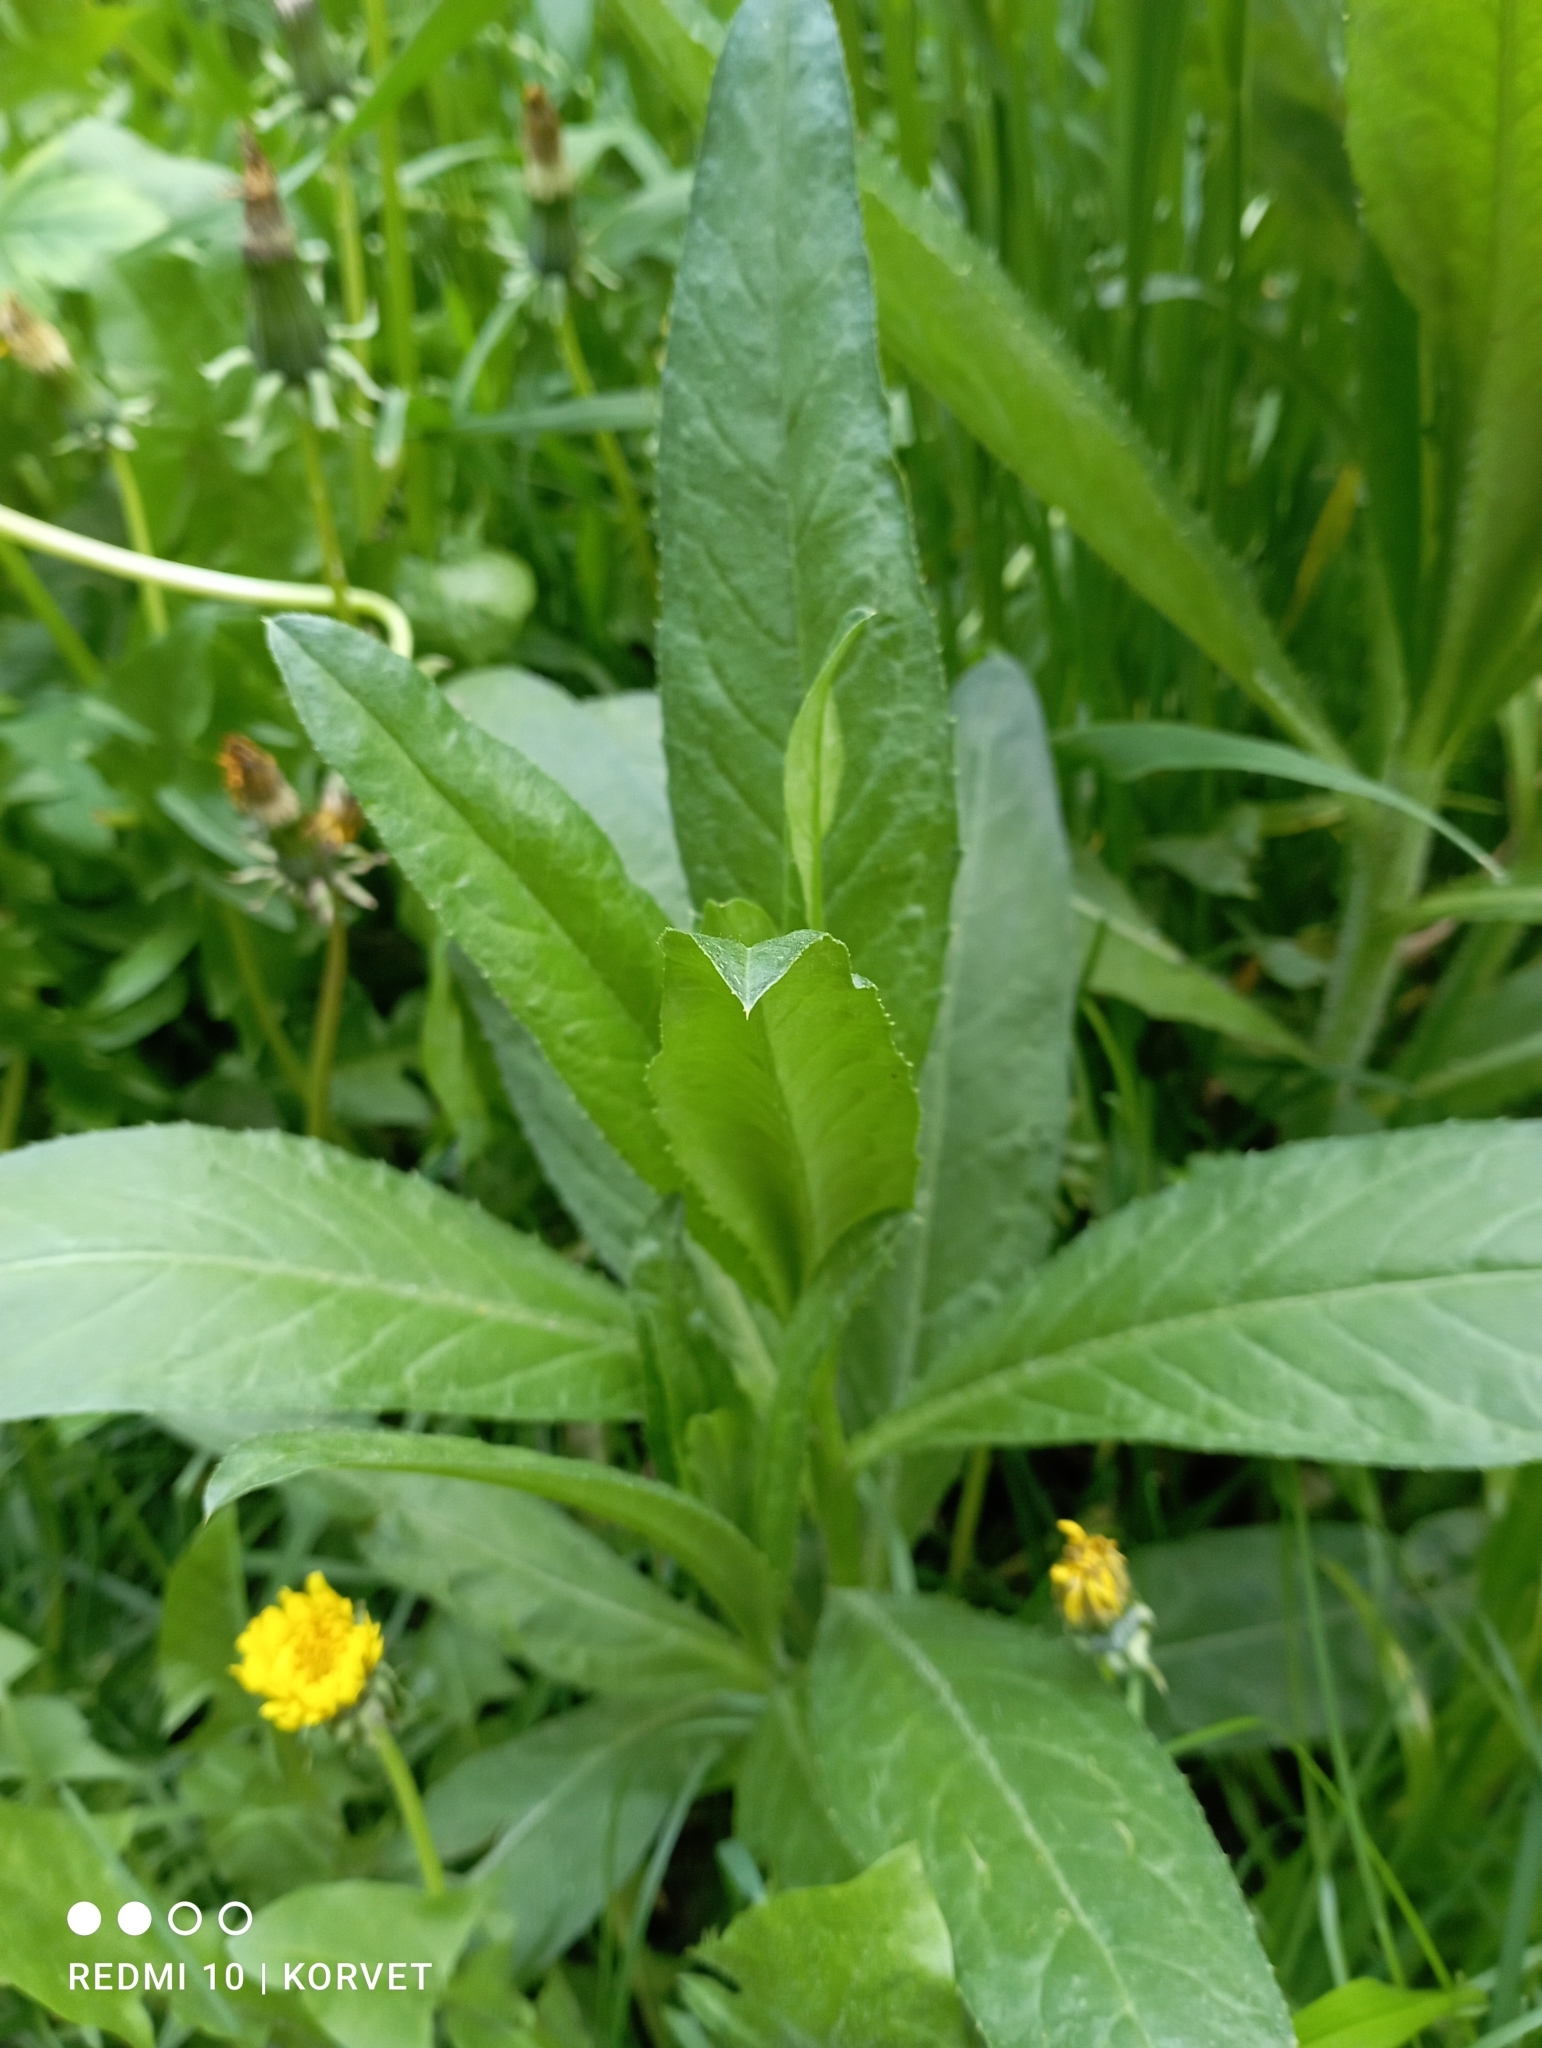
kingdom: Plantae
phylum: Tracheophyta
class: Magnoliopsida
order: Asterales
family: Asteraceae
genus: Cirsium
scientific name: Cirsium arvense
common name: Creeping thistle
